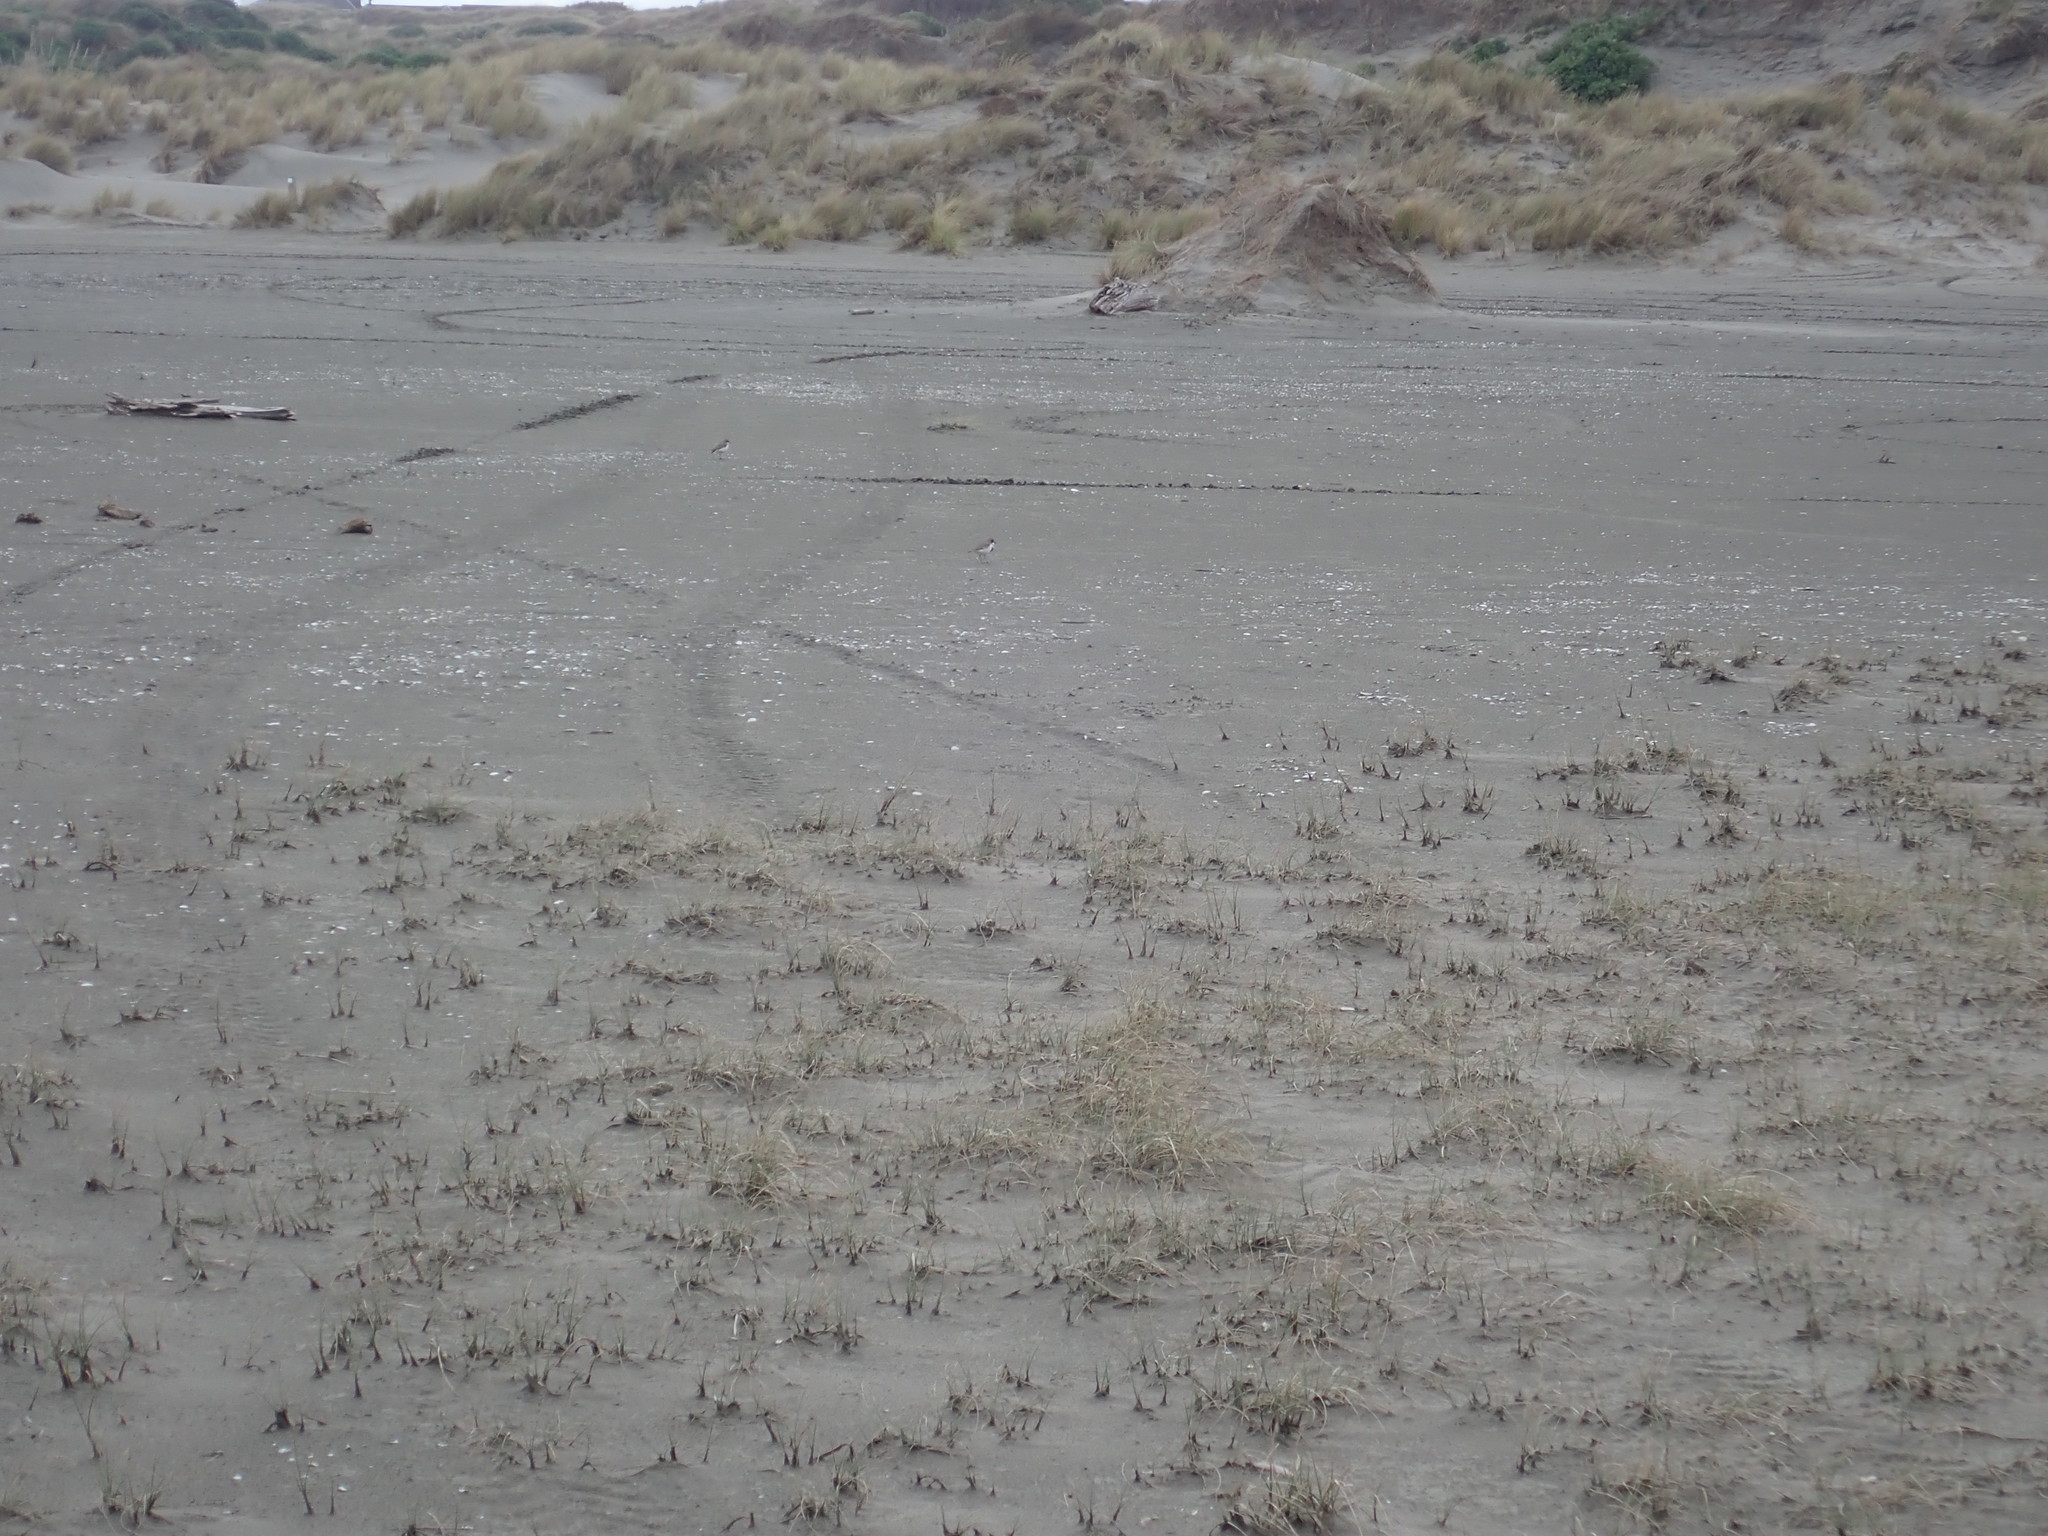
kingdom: Animalia
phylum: Chordata
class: Aves
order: Charadriiformes
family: Charadriidae
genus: Anarhynchus
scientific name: Anarhynchus
